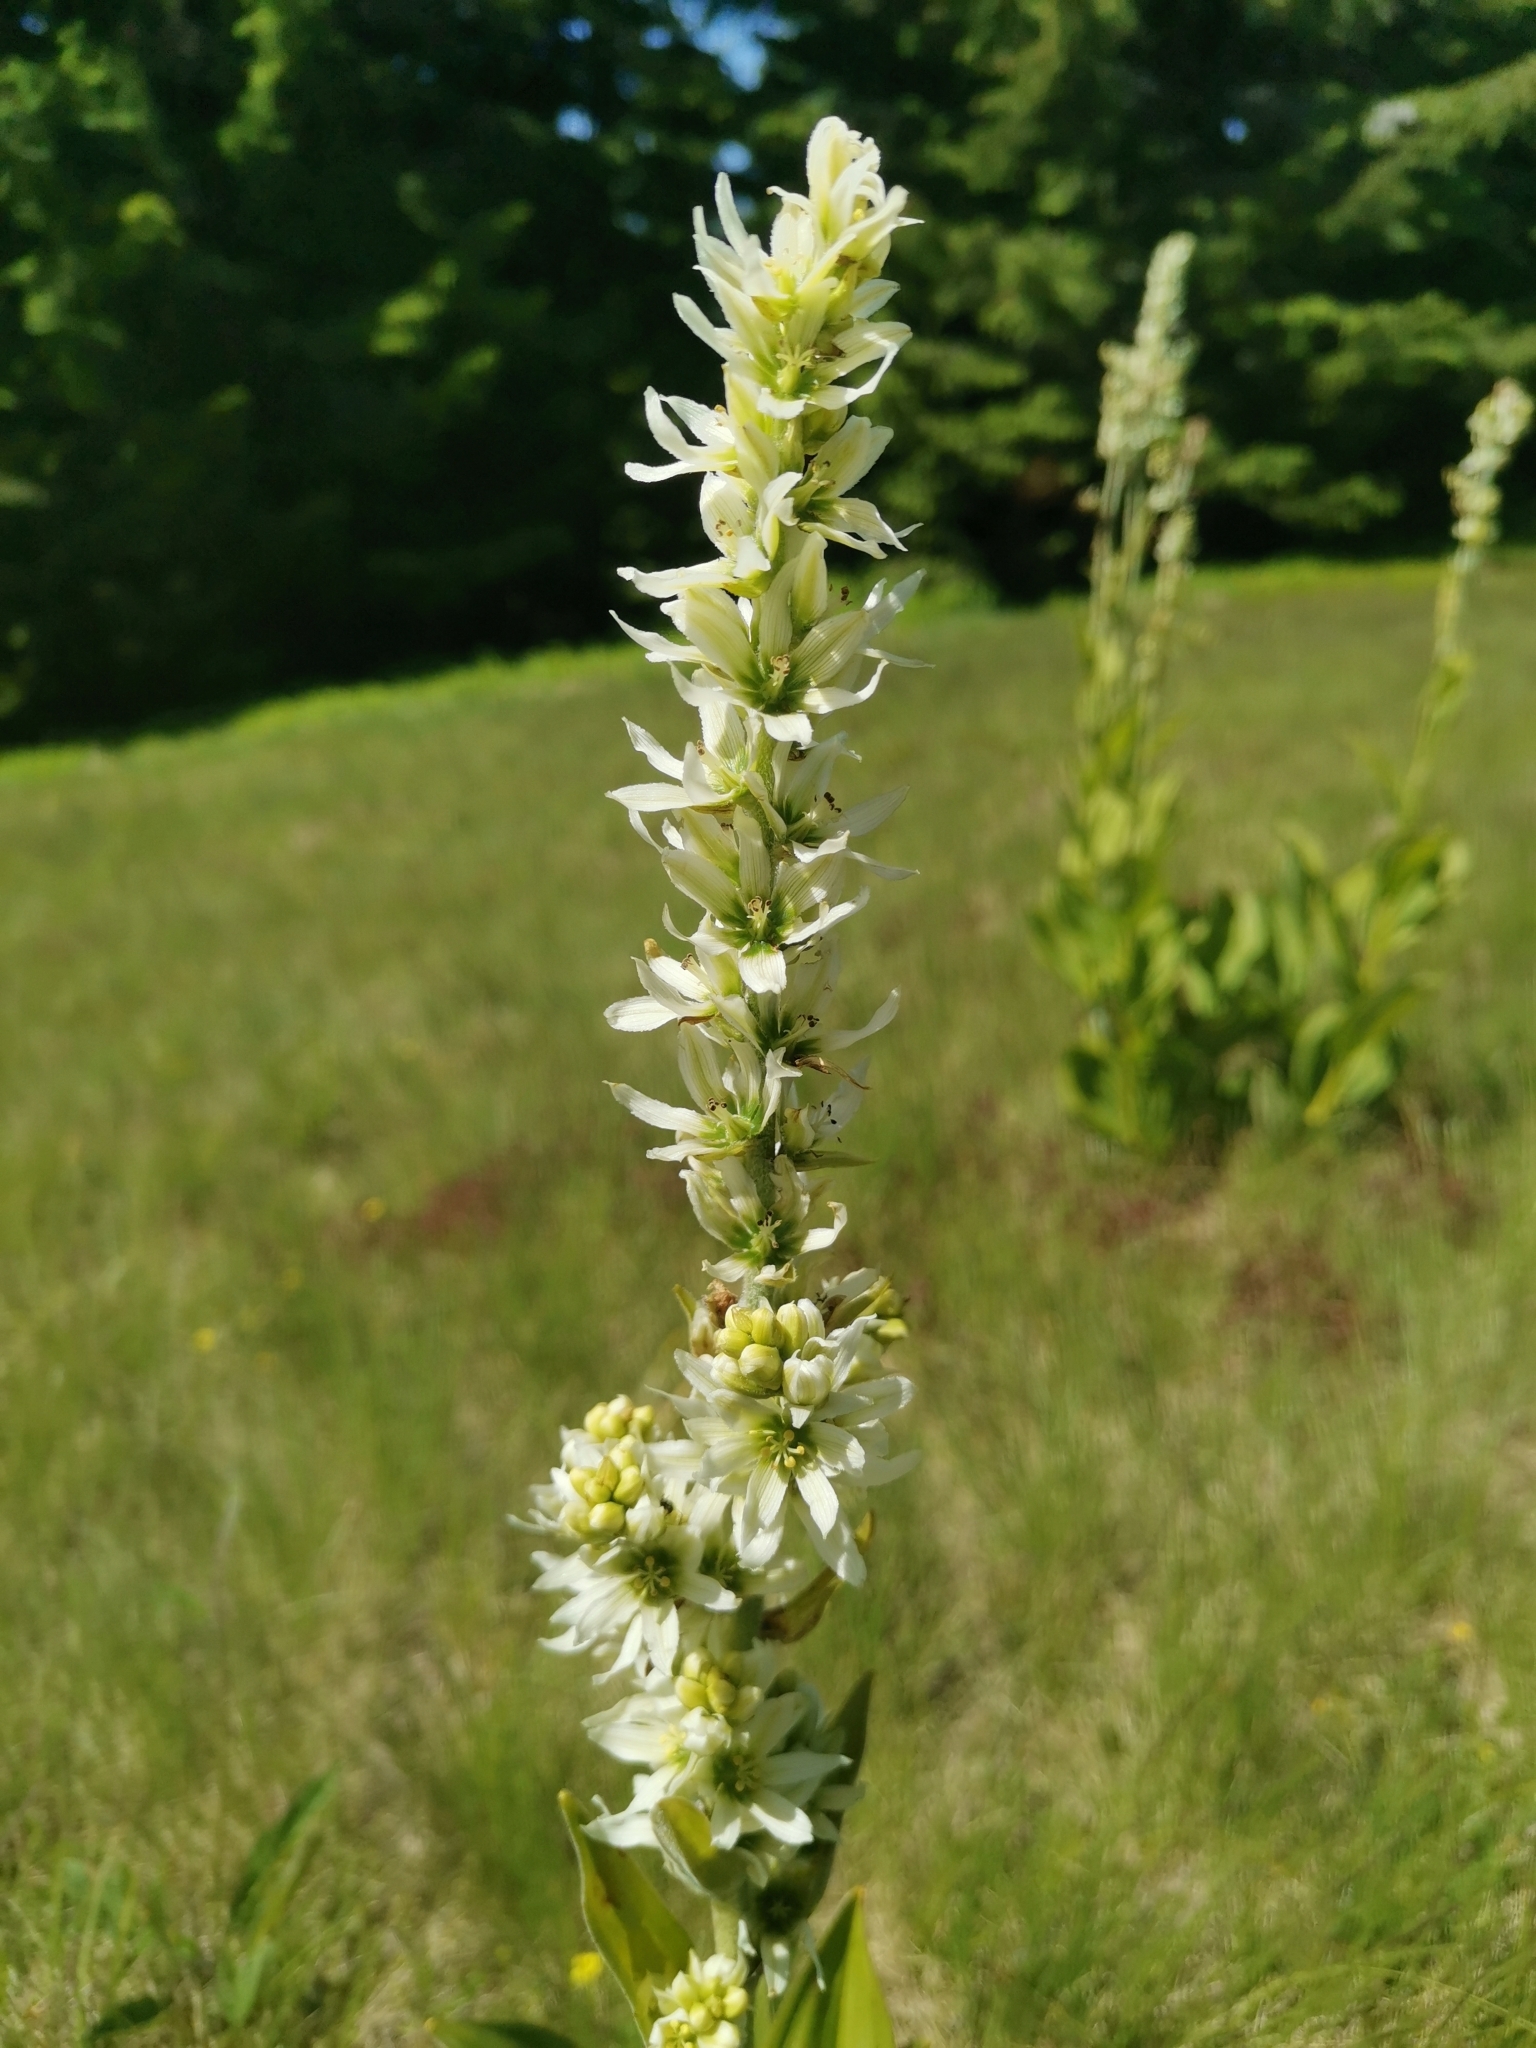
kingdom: Plantae
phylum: Tracheophyta
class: Liliopsida
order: Liliales
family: Melanthiaceae
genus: Veratrum
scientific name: Veratrum album
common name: White veratrum
